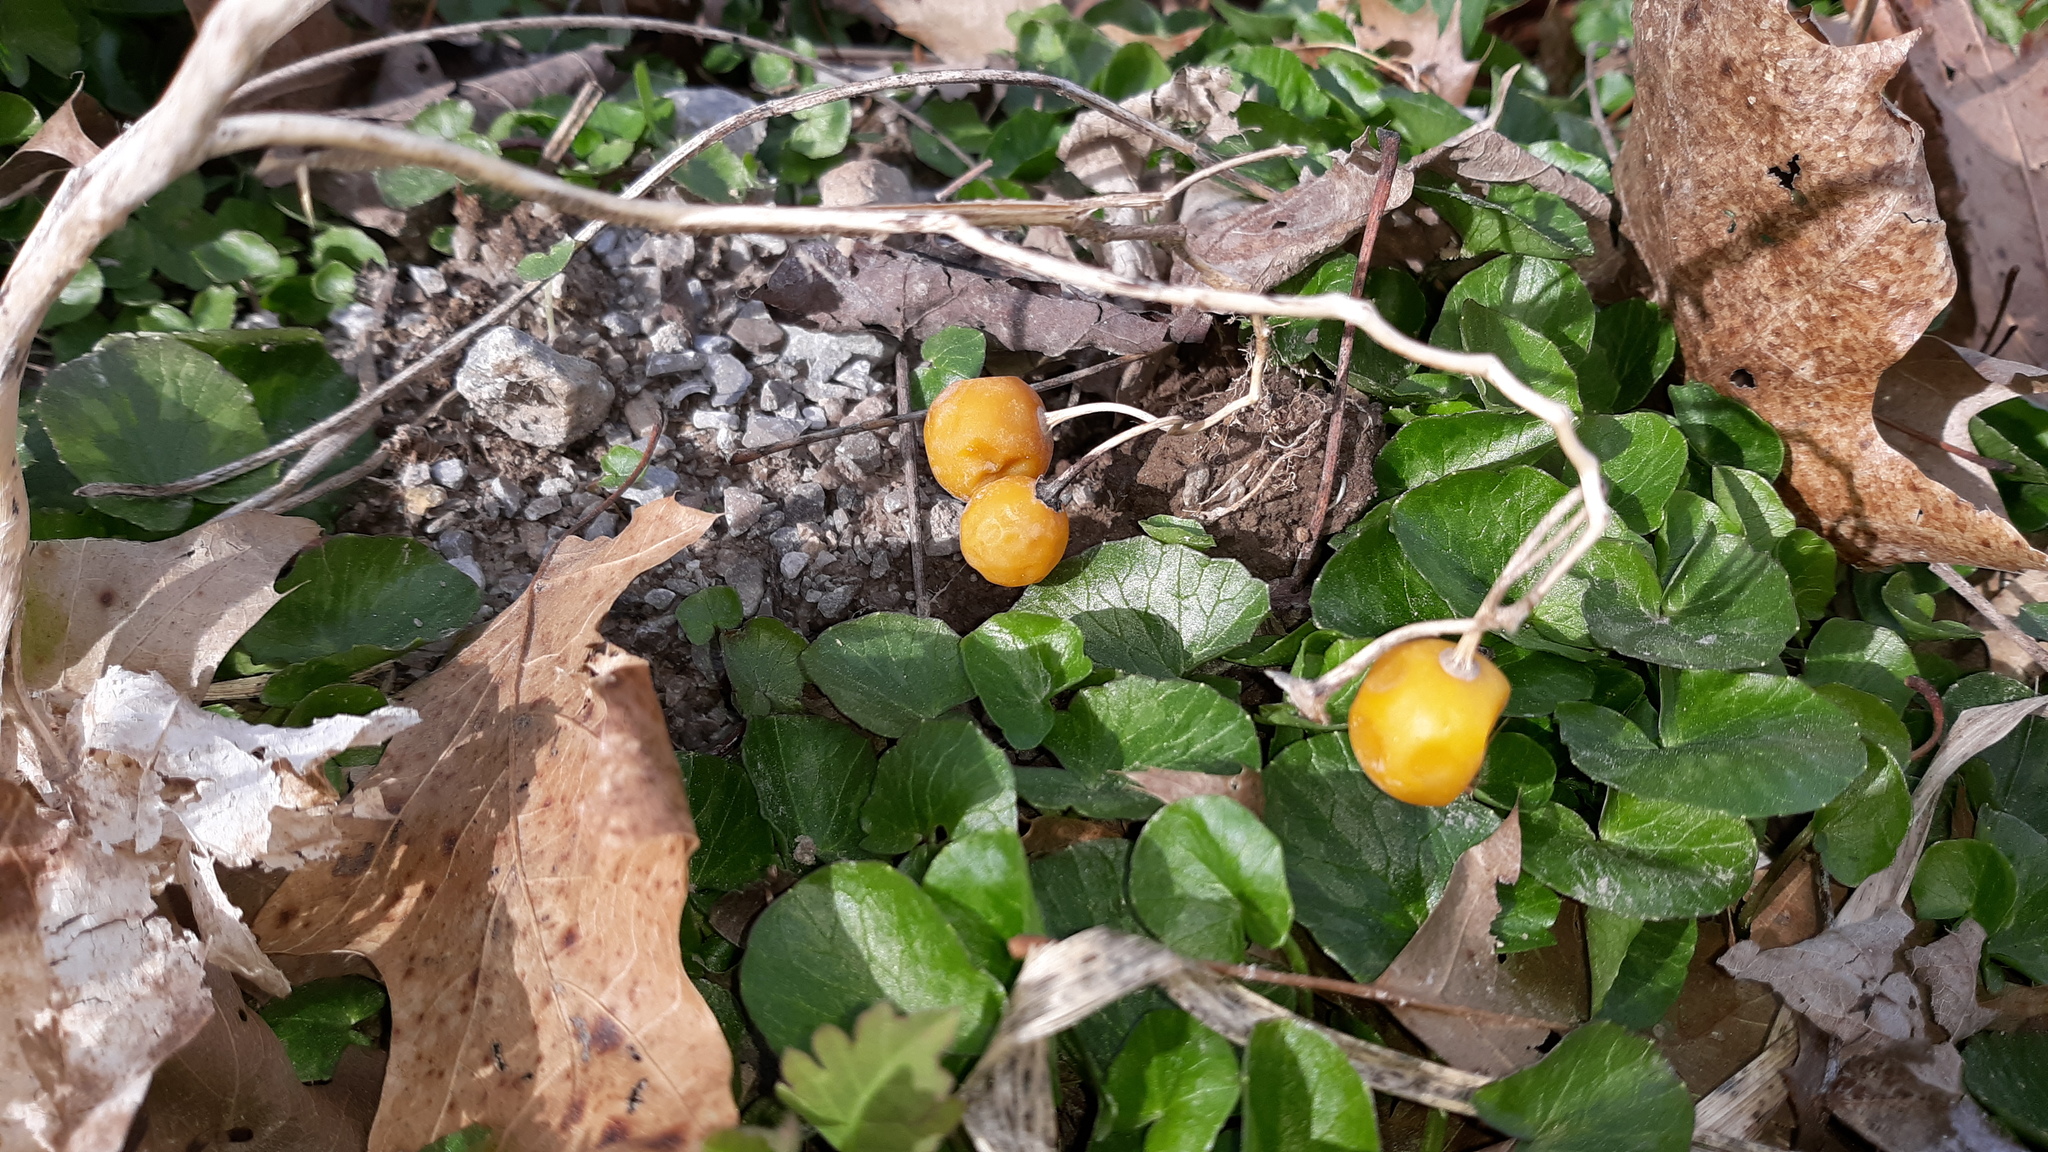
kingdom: Plantae
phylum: Tracheophyta
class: Magnoliopsida
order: Solanales
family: Solanaceae
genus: Solanum
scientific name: Solanum carolinense
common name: Horse-nettle
